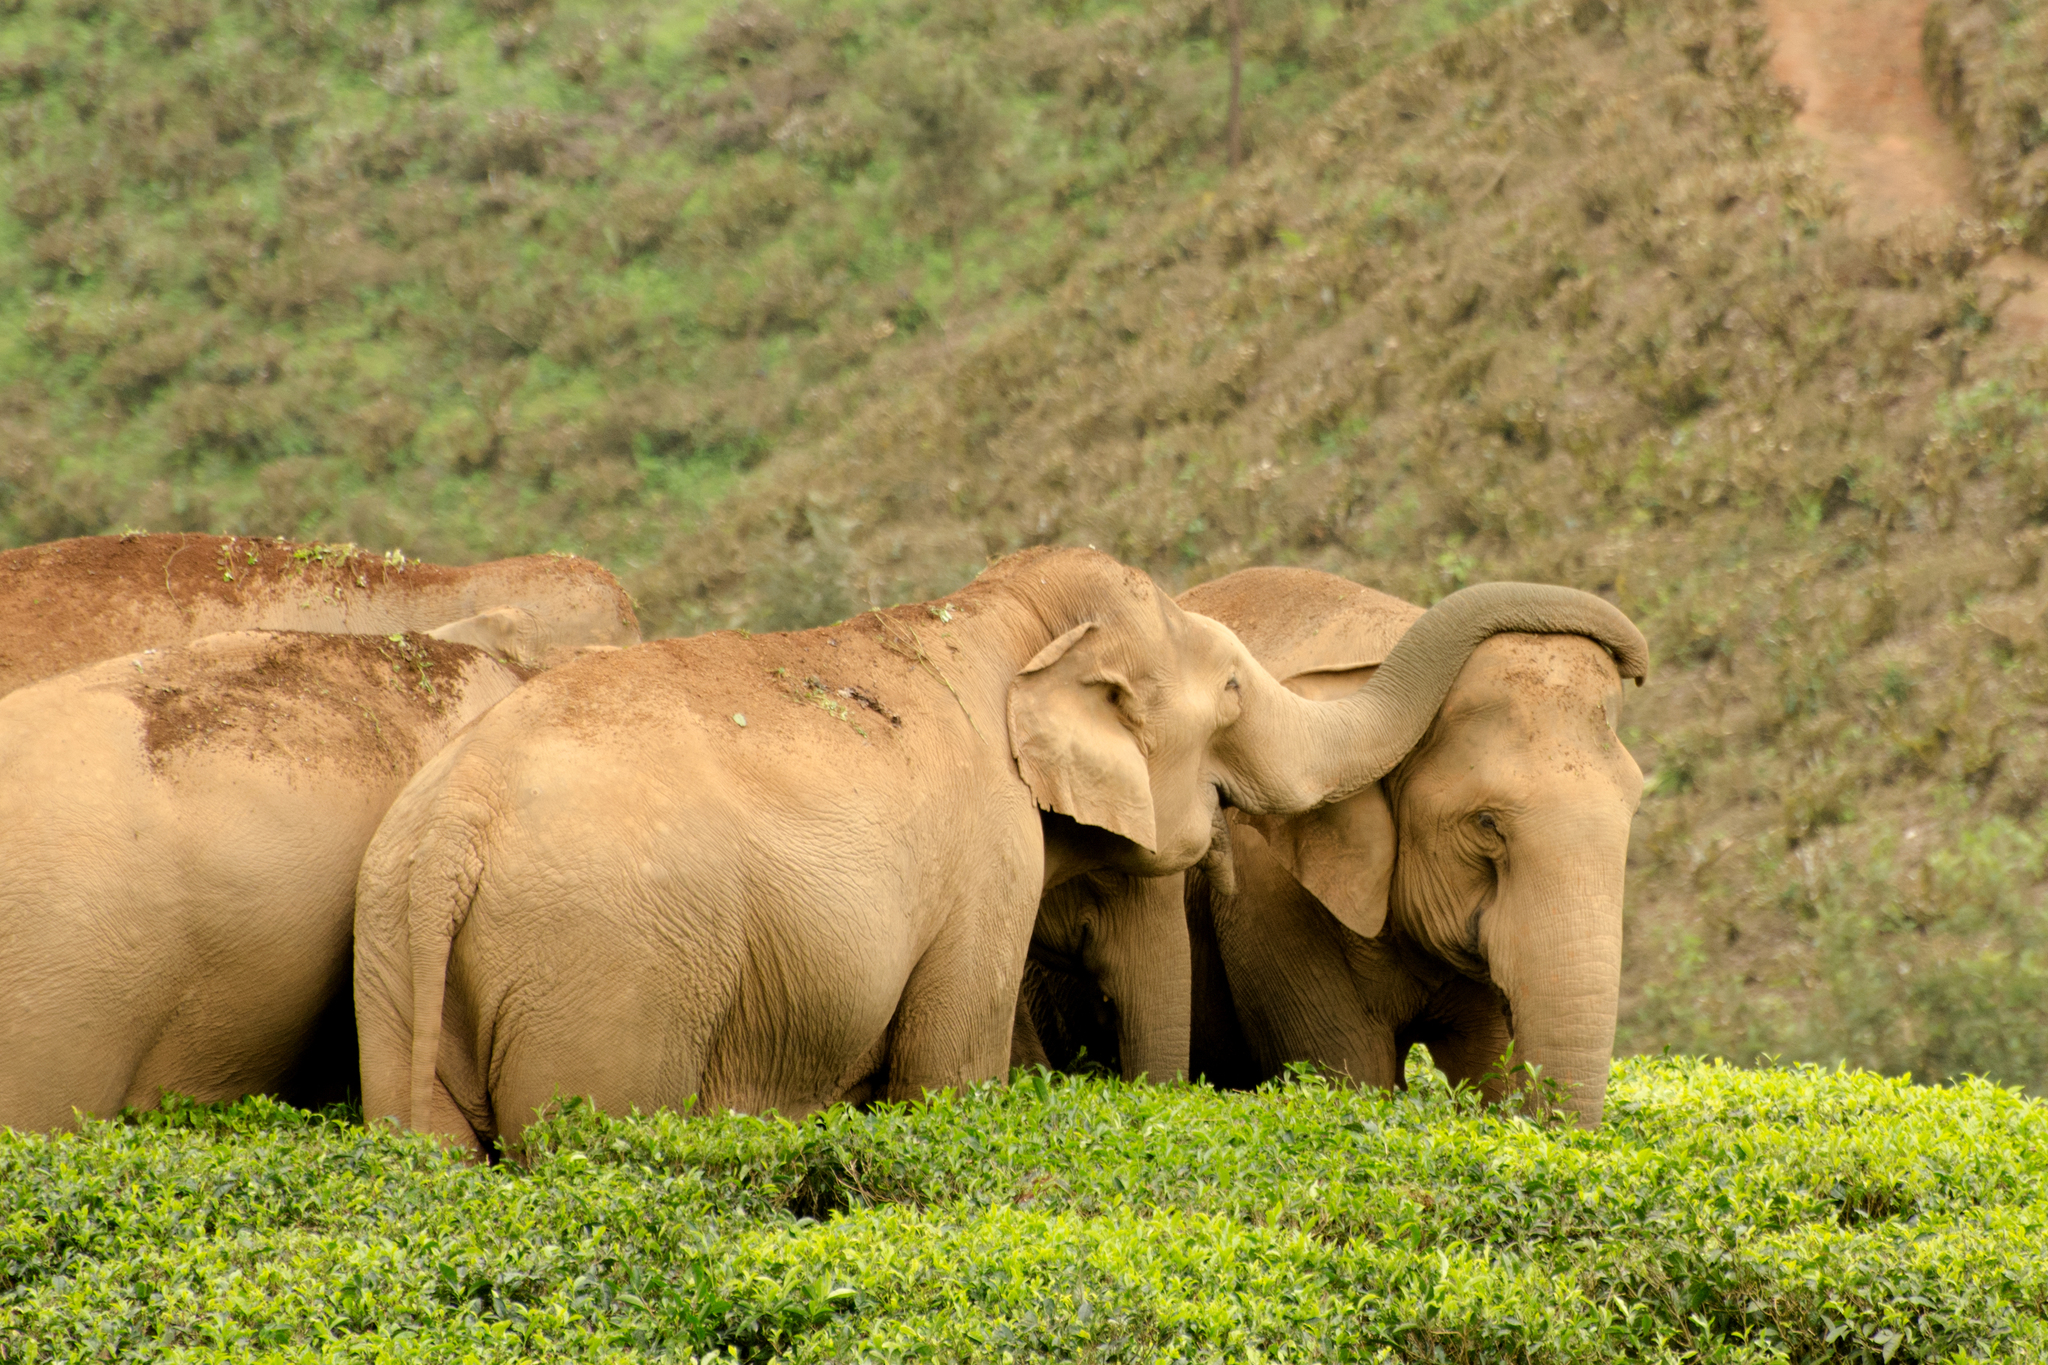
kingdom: Animalia
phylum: Chordata
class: Mammalia
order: Proboscidea
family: Elephantidae
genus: Elephas
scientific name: Elephas maximus
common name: Asian elephant
